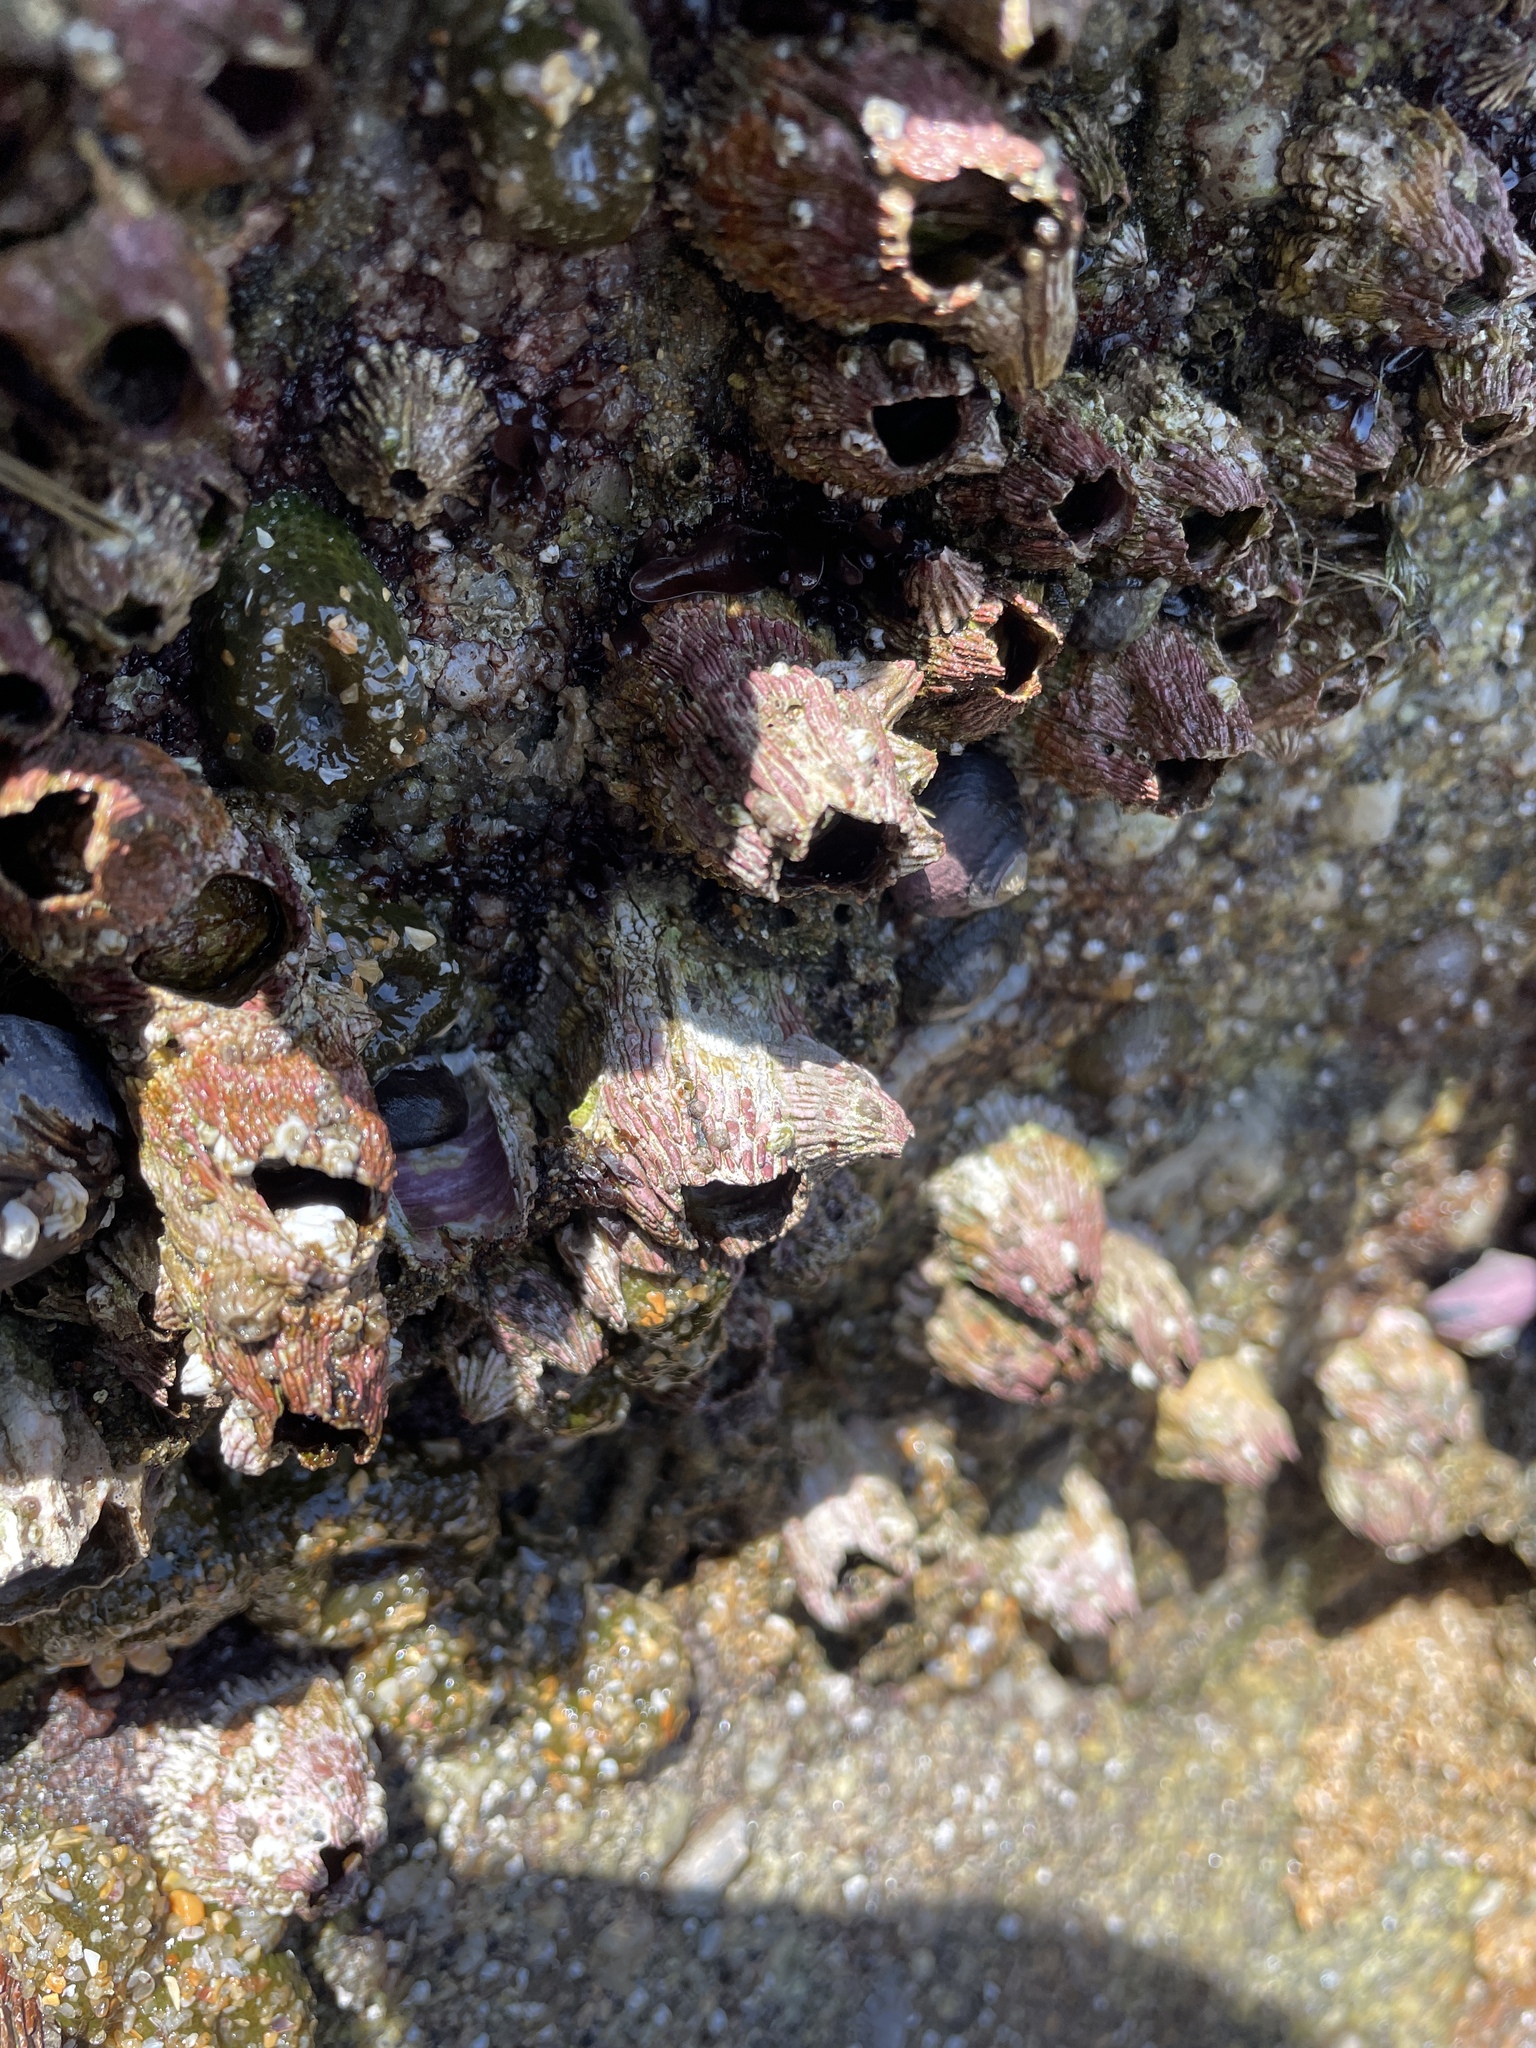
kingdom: Animalia
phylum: Arthropoda
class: Maxillopoda
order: Sessilia
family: Tetraclitidae
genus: Tetraclita
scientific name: Tetraclita rubescens
